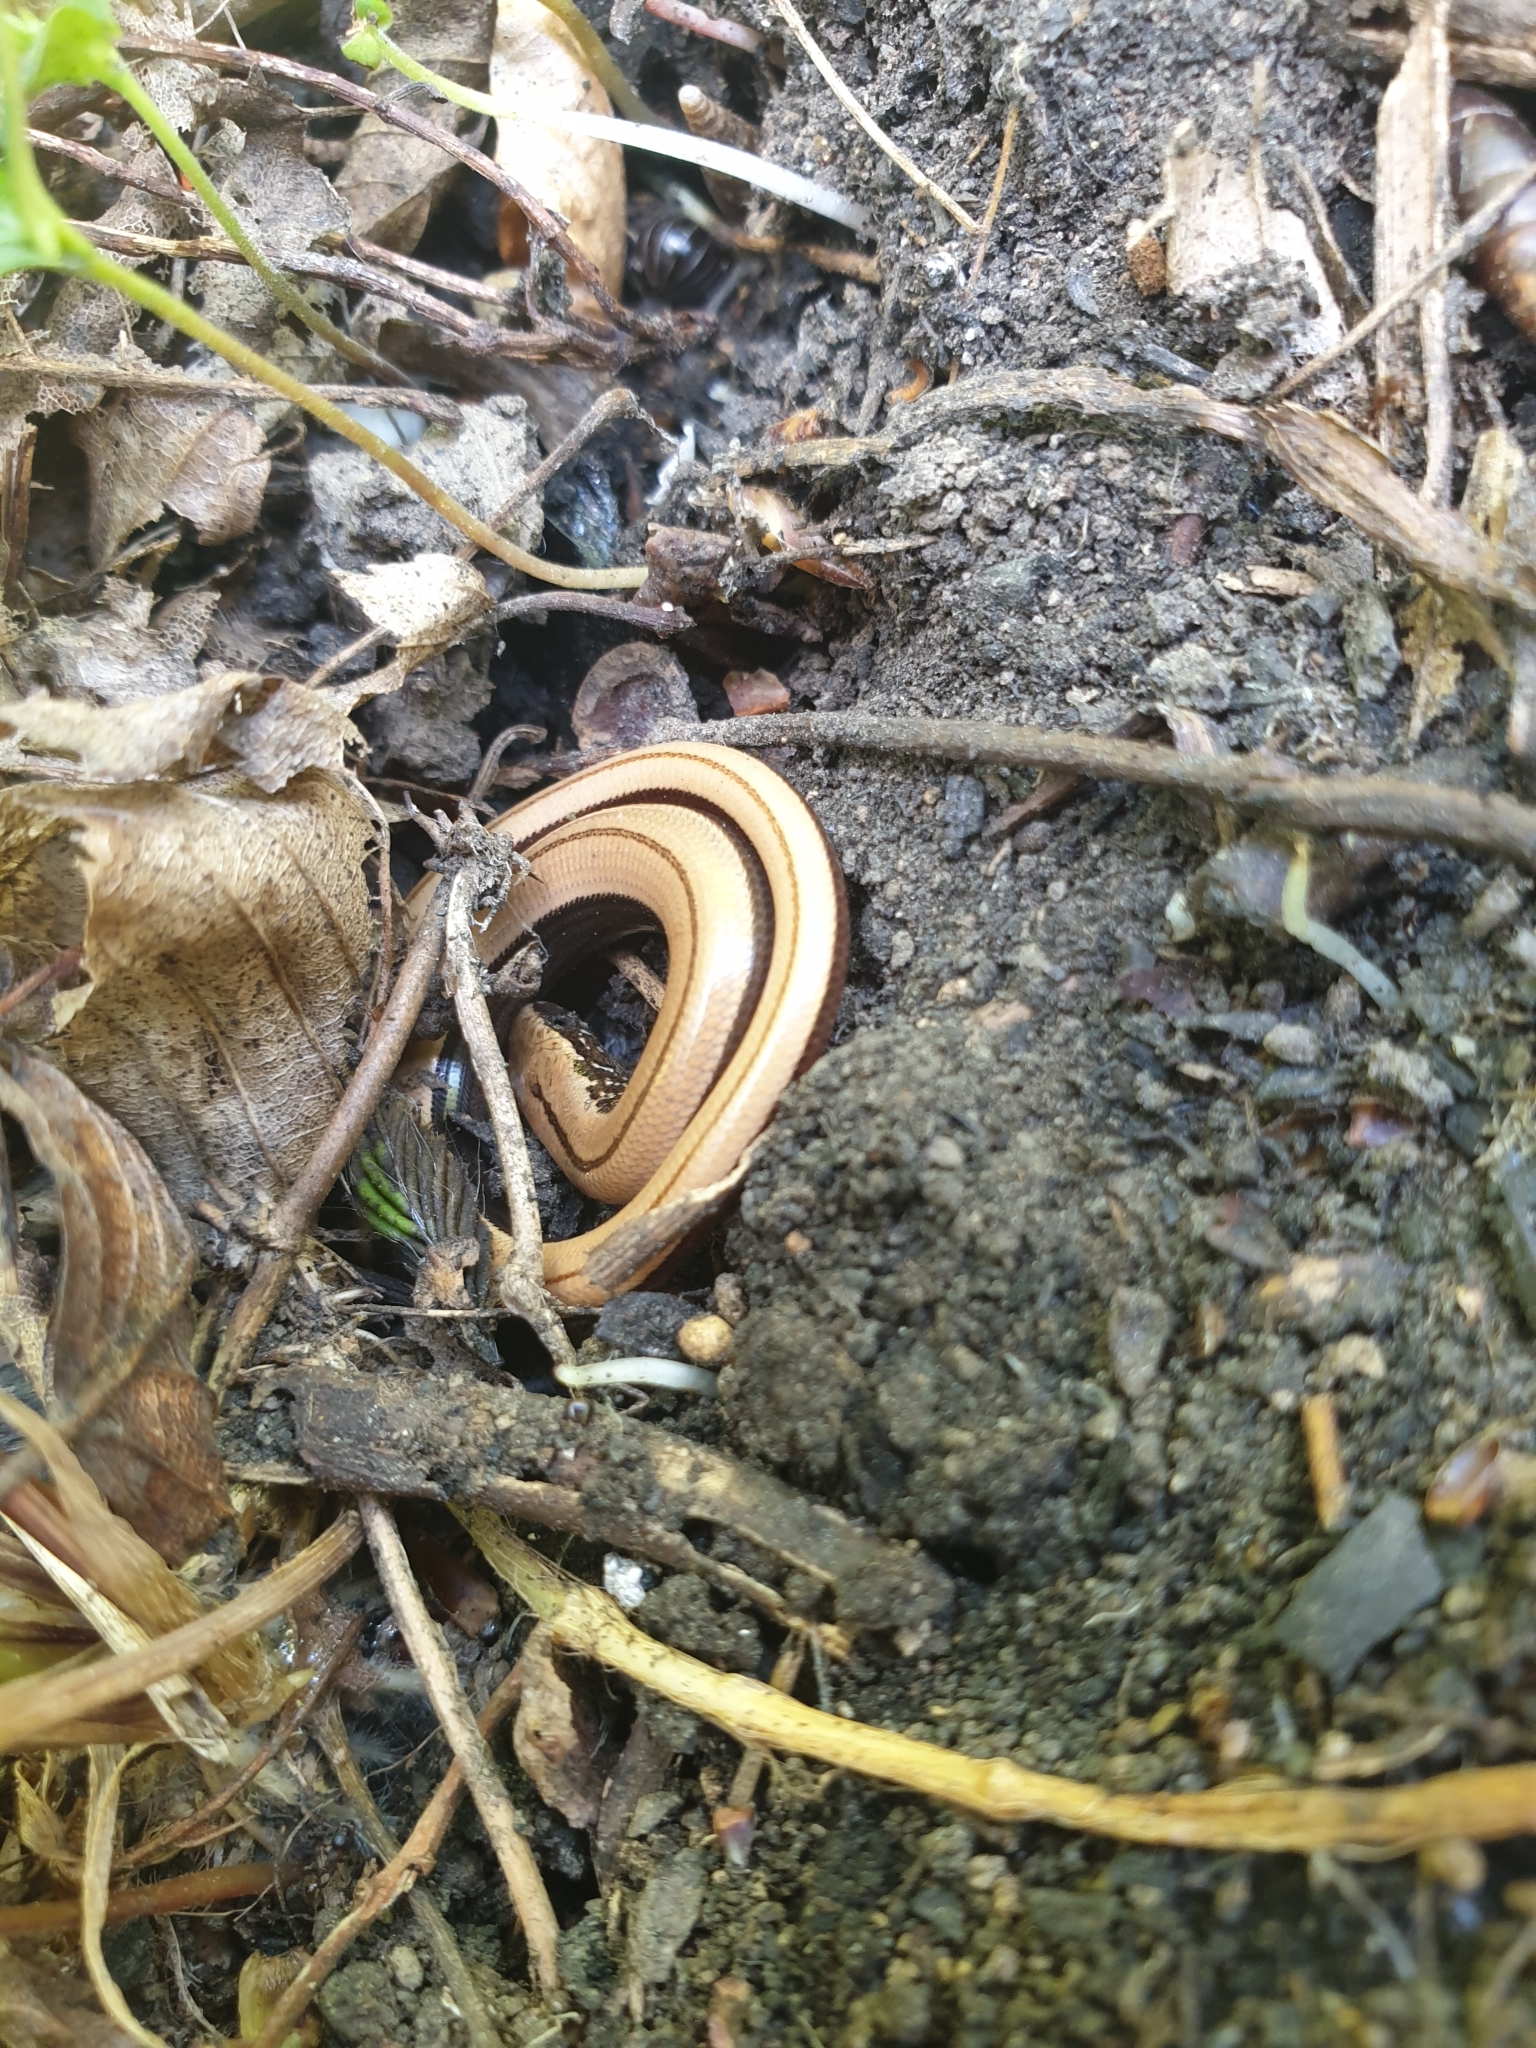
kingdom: Animalia
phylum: Chordata
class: Squamata
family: Anguidae
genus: Anguis
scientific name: Anguis fragilis
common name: Slow worm
